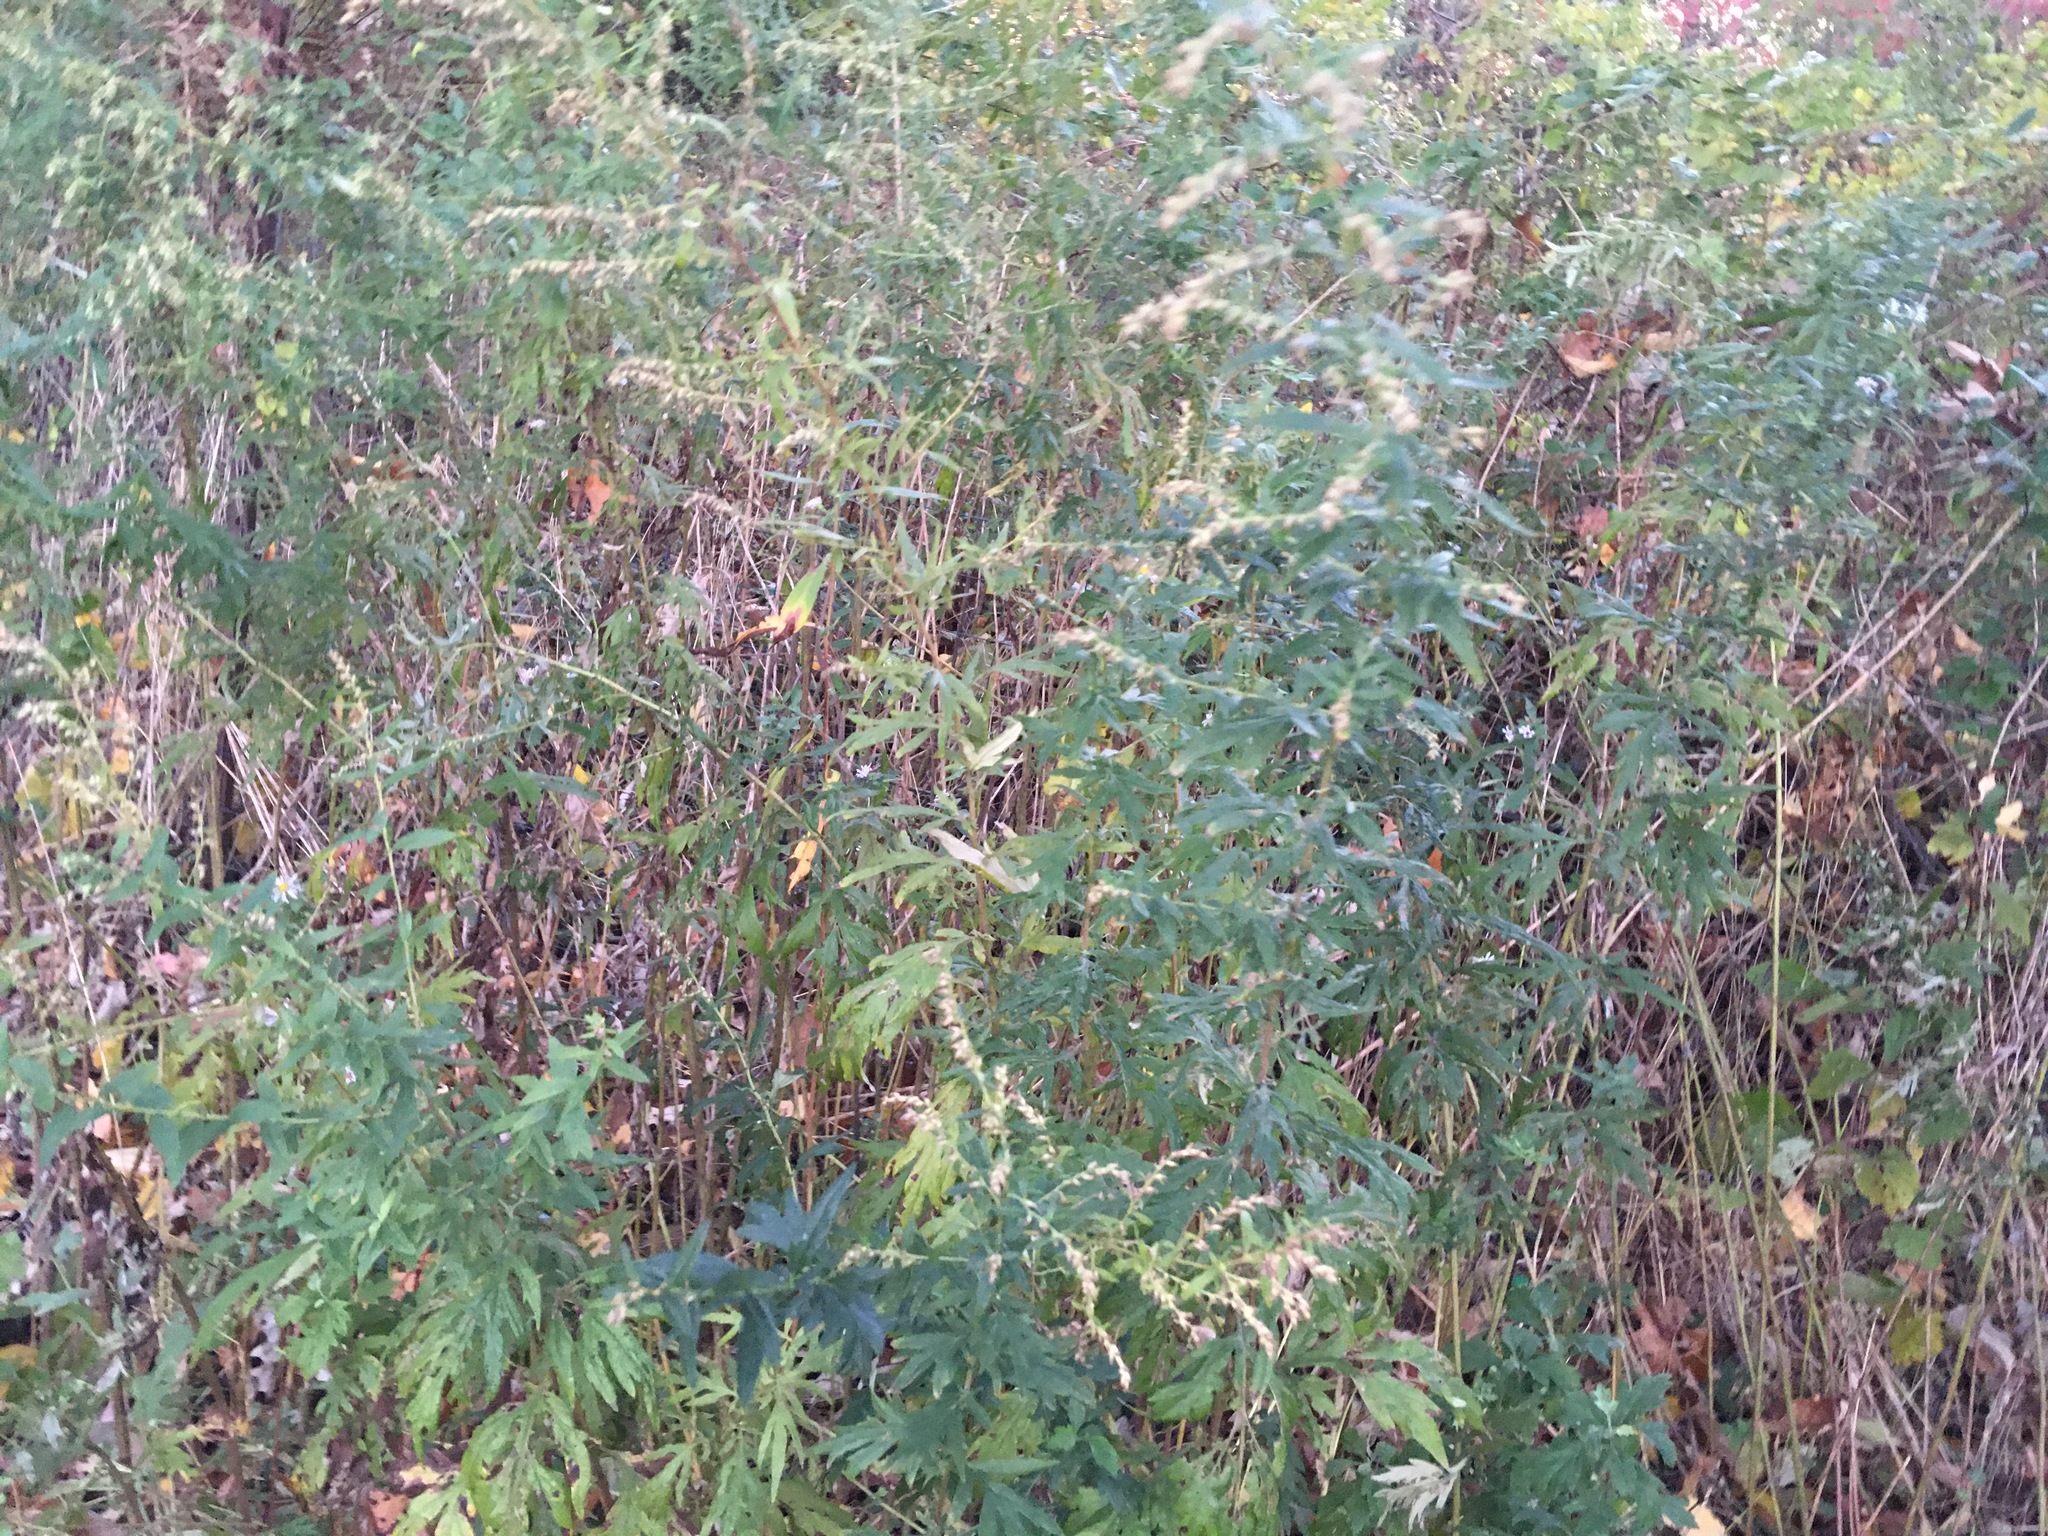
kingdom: Plantae
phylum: Tracheophyta
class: Magnoliopsida
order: Asterales
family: Asteraceae
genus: Artemisia
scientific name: Artemisia vulgaris
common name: Mugwort
